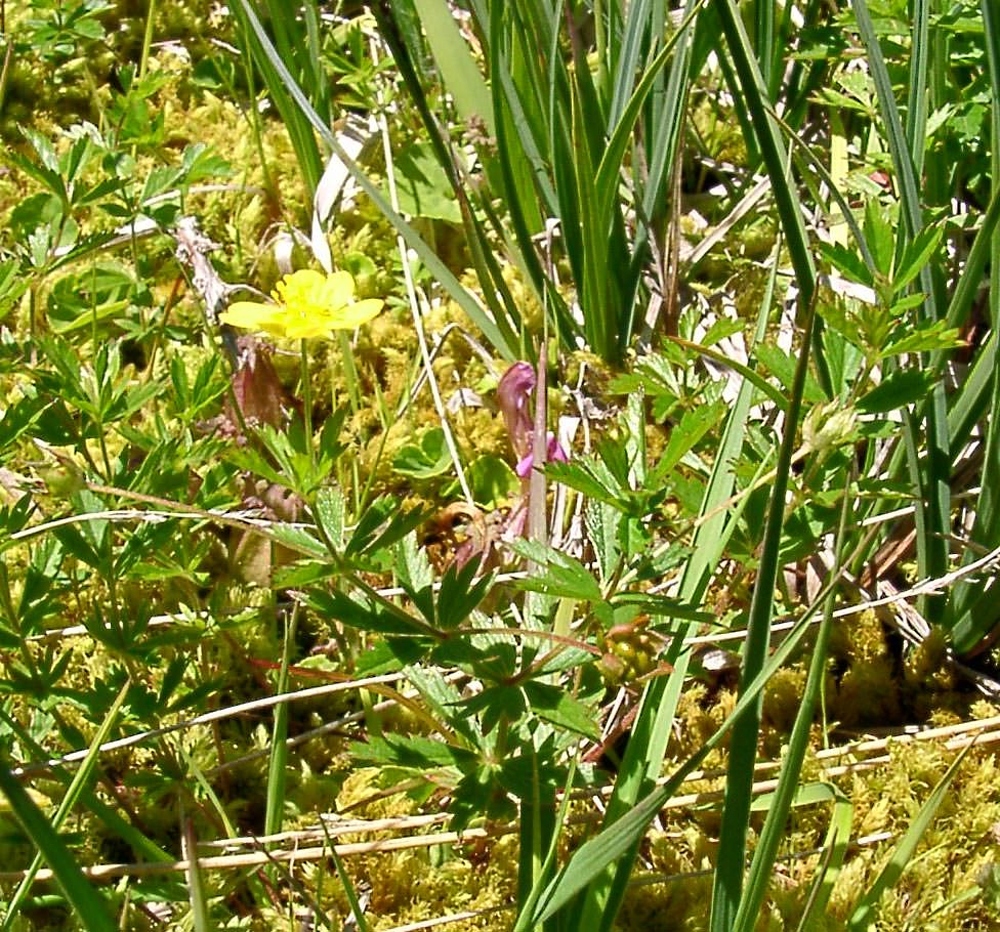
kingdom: Plantae
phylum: Tracheophyta
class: Magnoliopsida
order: Rosales
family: Rosaceae
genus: Potentilla
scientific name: Potentilla erecta
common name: Tormentil
